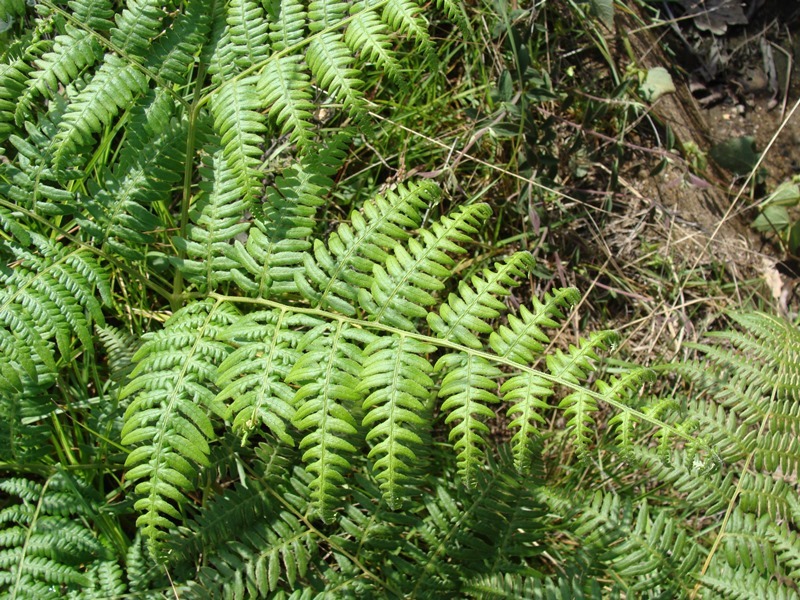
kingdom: Plantae
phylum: Tracheophyta
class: Polypodiopsida
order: Polypodiales
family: Dennstaedtiaceae
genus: Pteridium
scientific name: Pteridium caudatum
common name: Southern bracken fern
